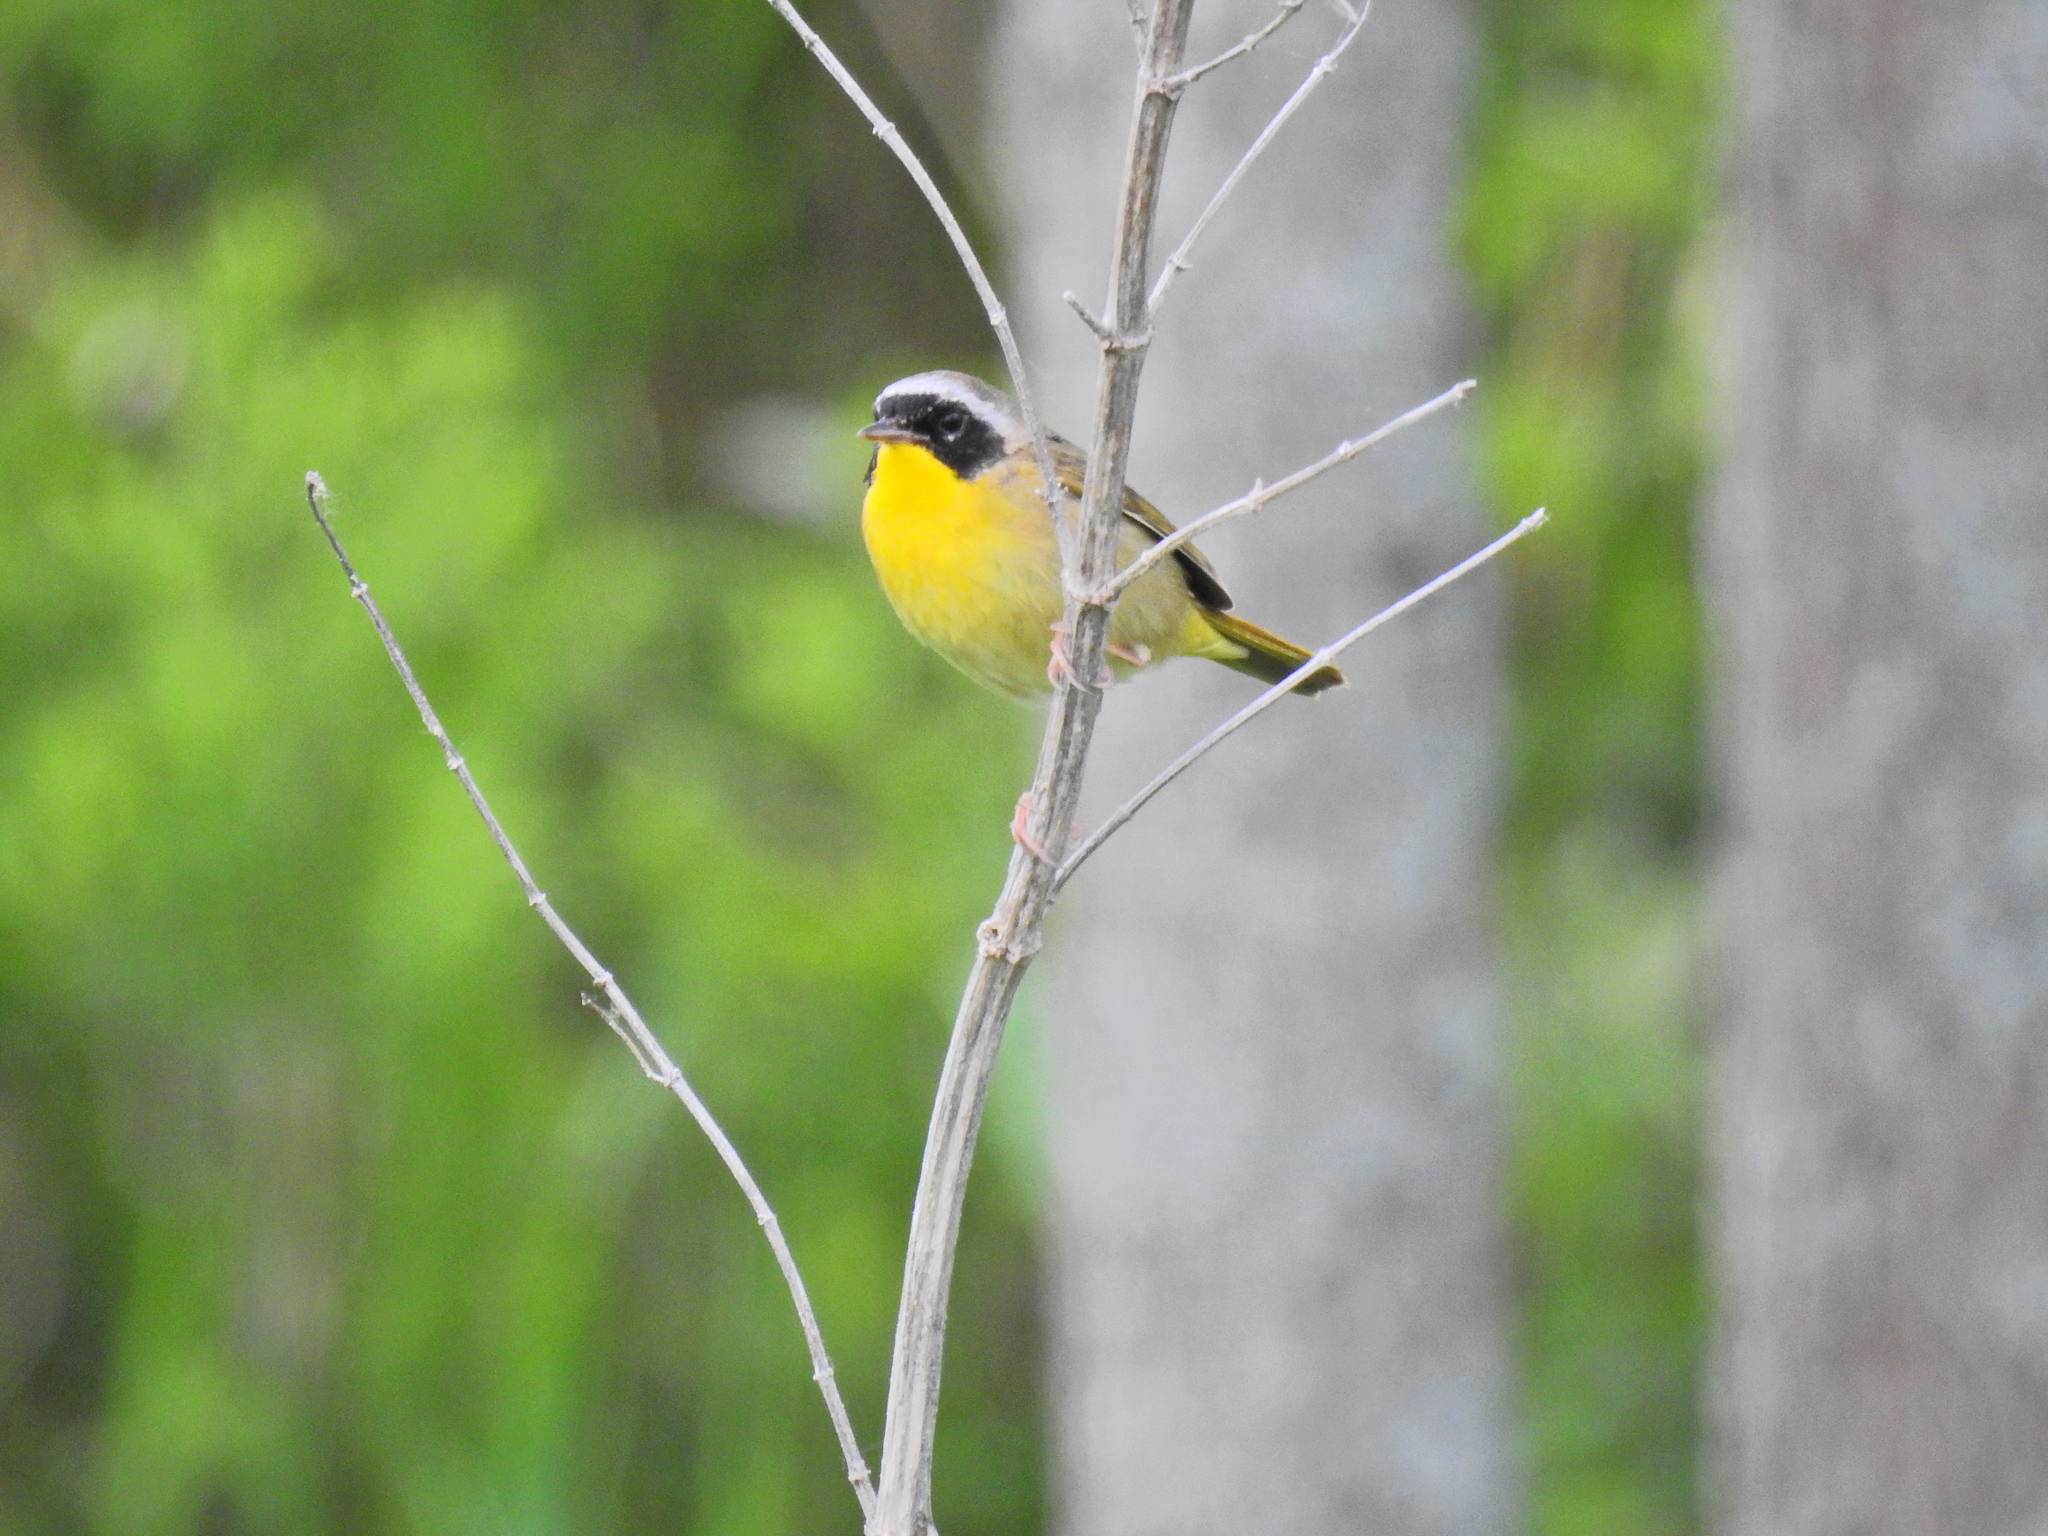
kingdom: Animalia
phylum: Chordata
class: Aves
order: Passeriformes
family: Parulidae
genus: Geothlypis
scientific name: Geothlypis trichas
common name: Common yellowthroat
